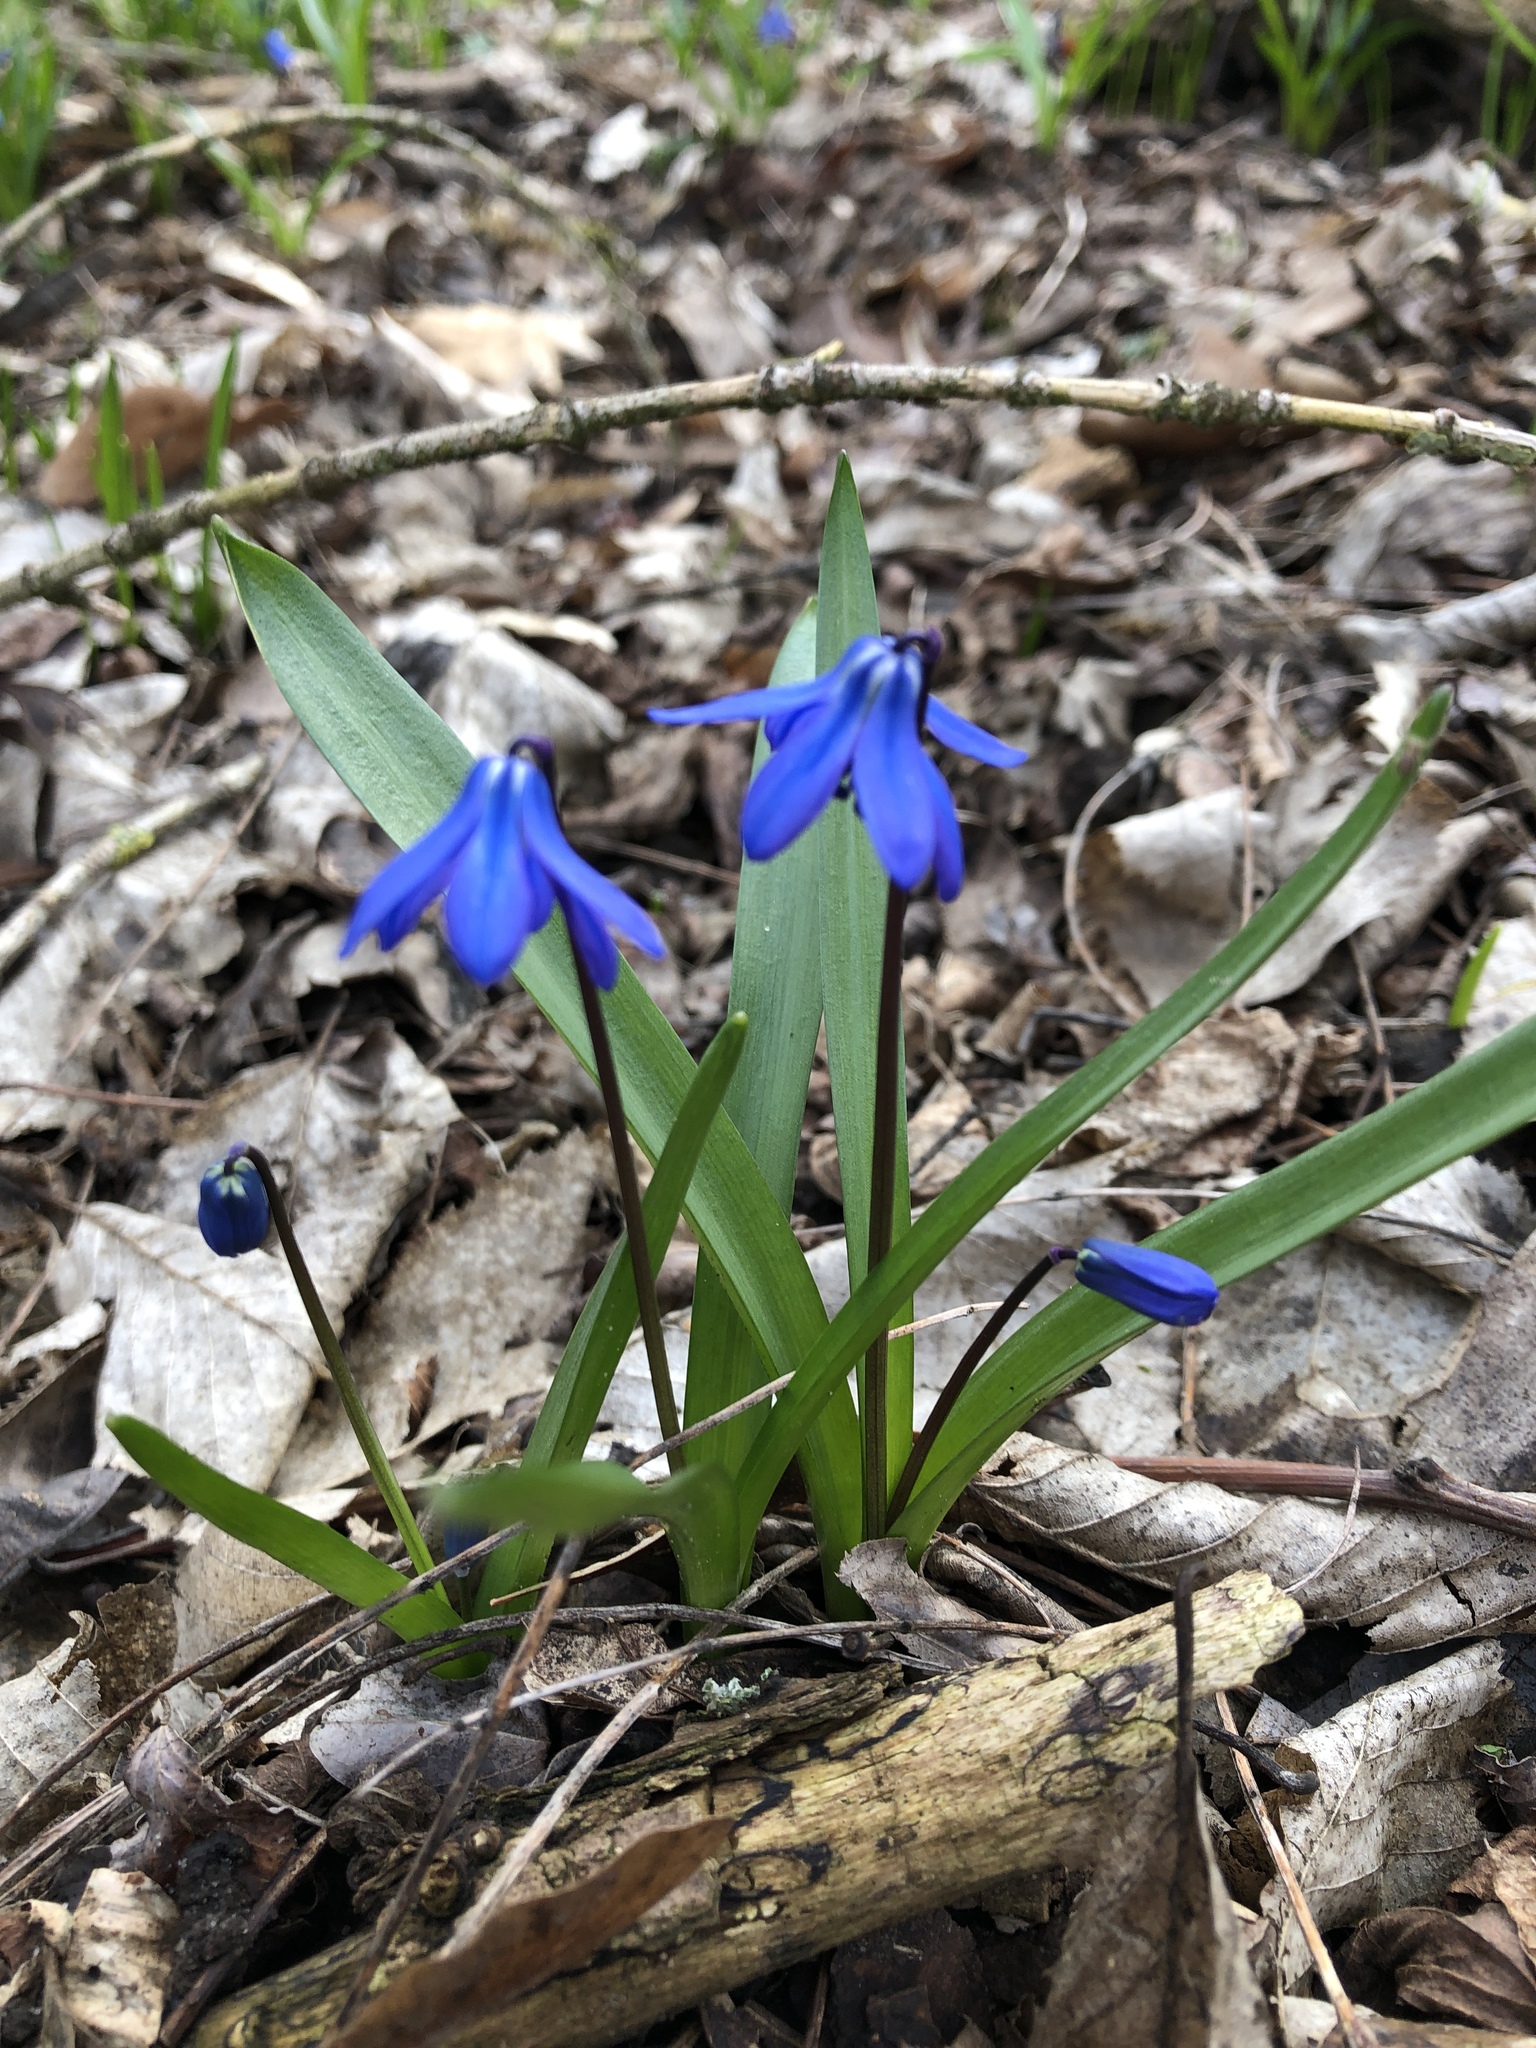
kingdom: Plantae
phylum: Tracheophyta
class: Liliopsida
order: Asparagales
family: Asparagaceae
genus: Scilla
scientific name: Scilla siberica
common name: Siberian squill
